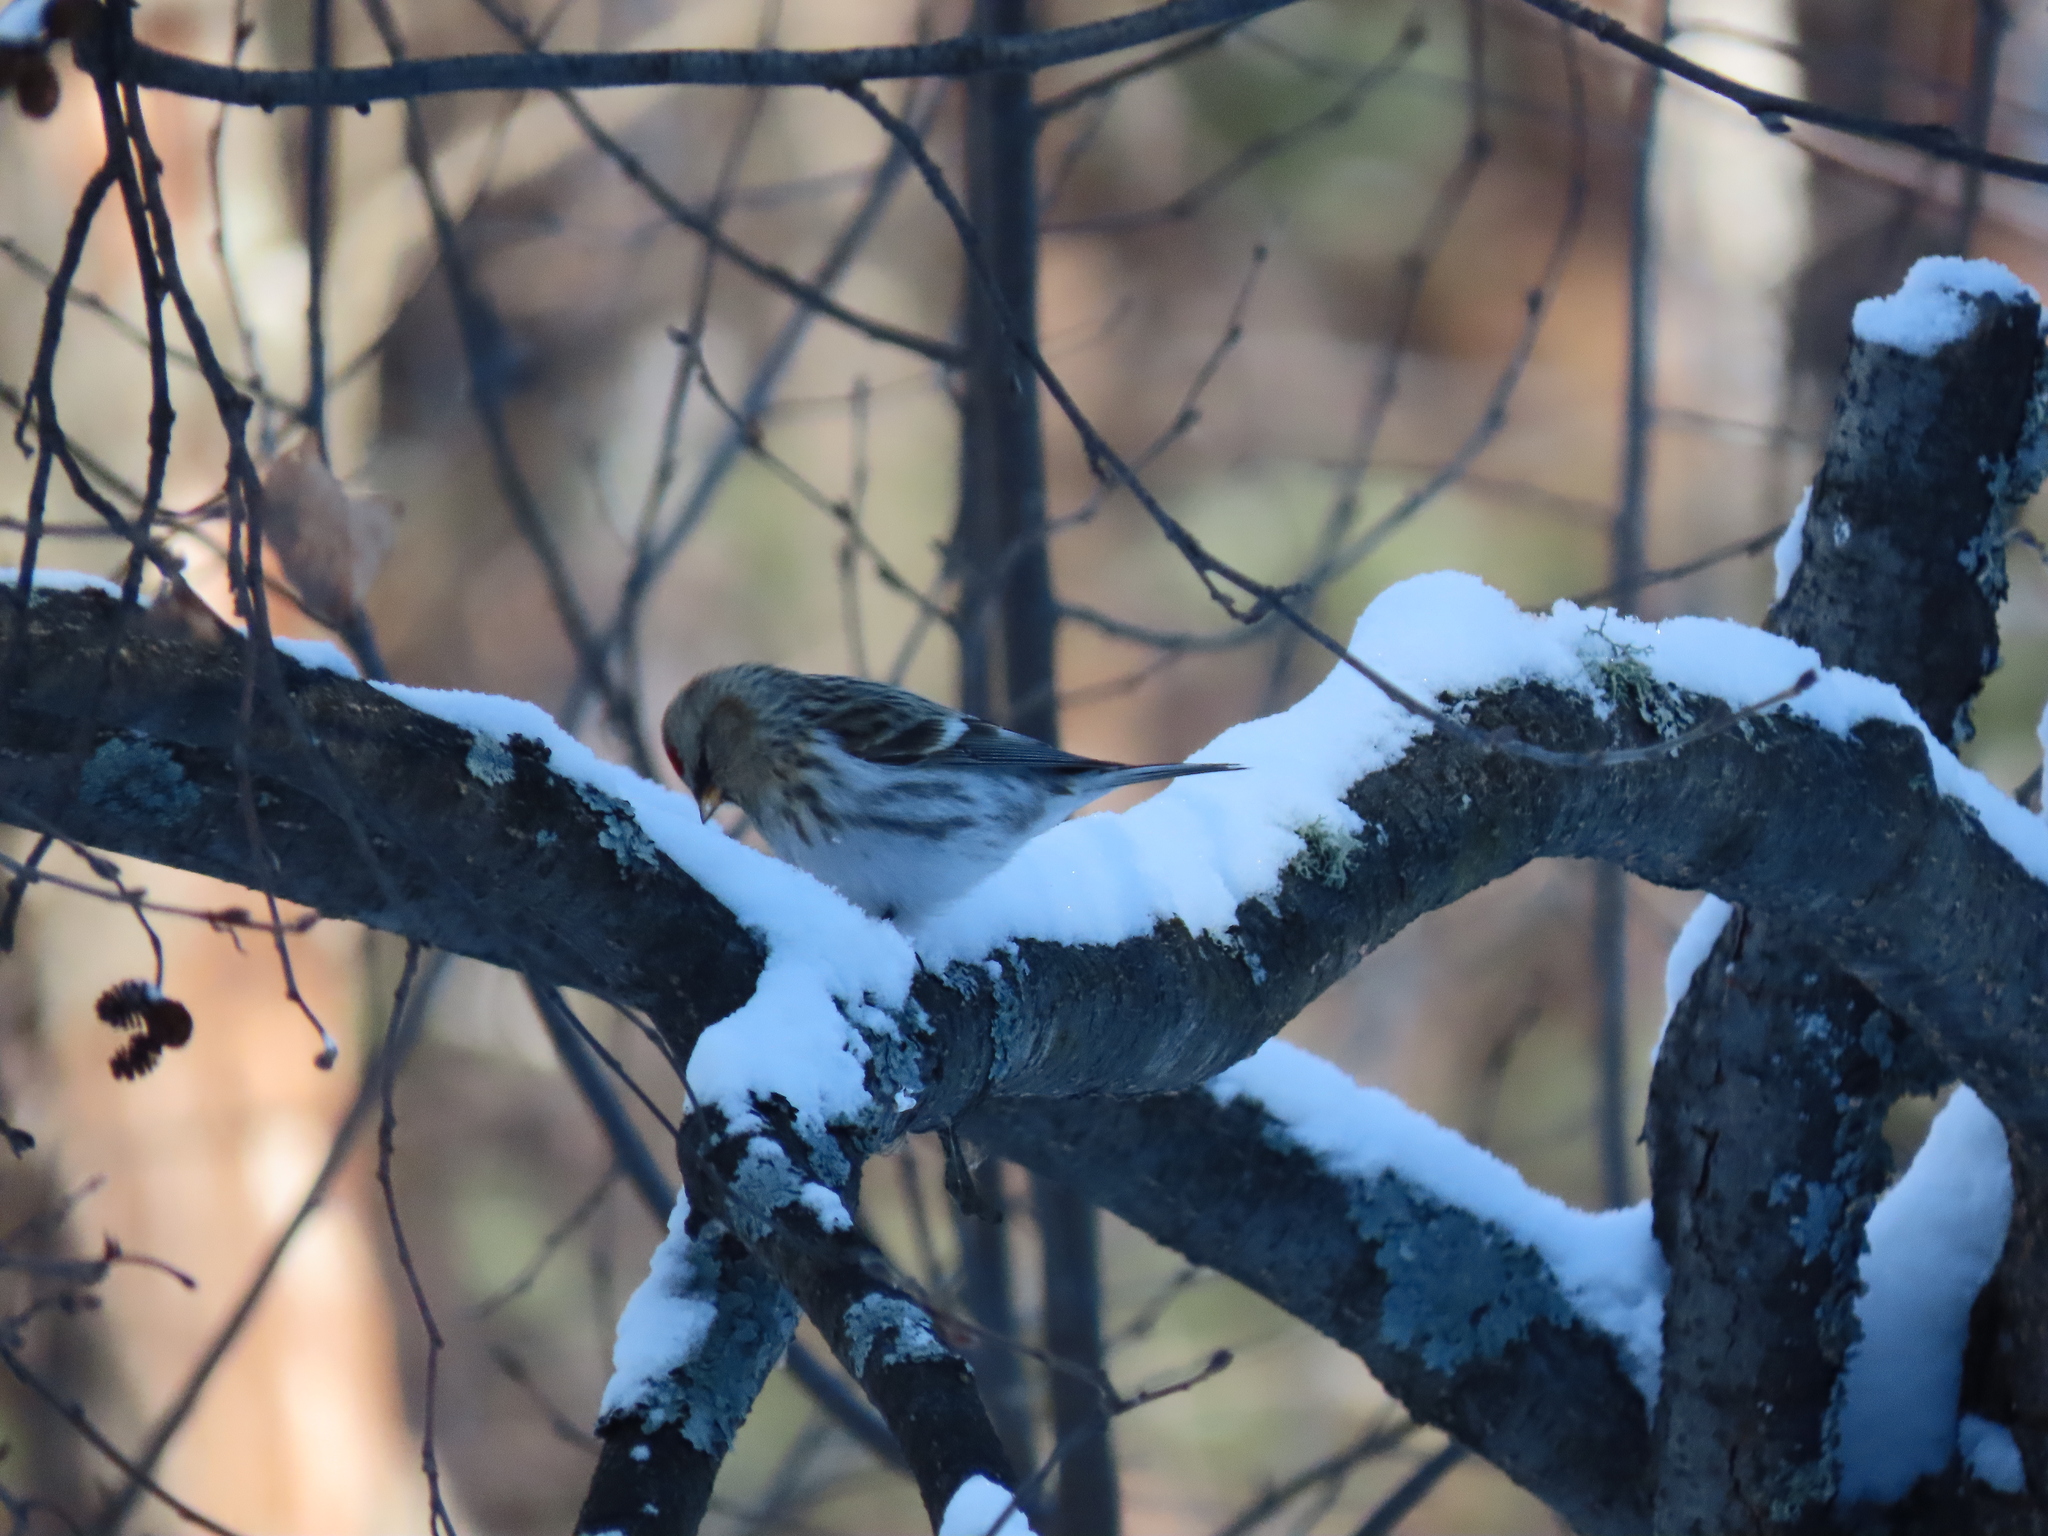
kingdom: Animalia
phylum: Chordata
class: Aves
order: Passeriformes
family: Fringillidae
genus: Acanthis
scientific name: Acanthis flammea
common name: Common redpoll
